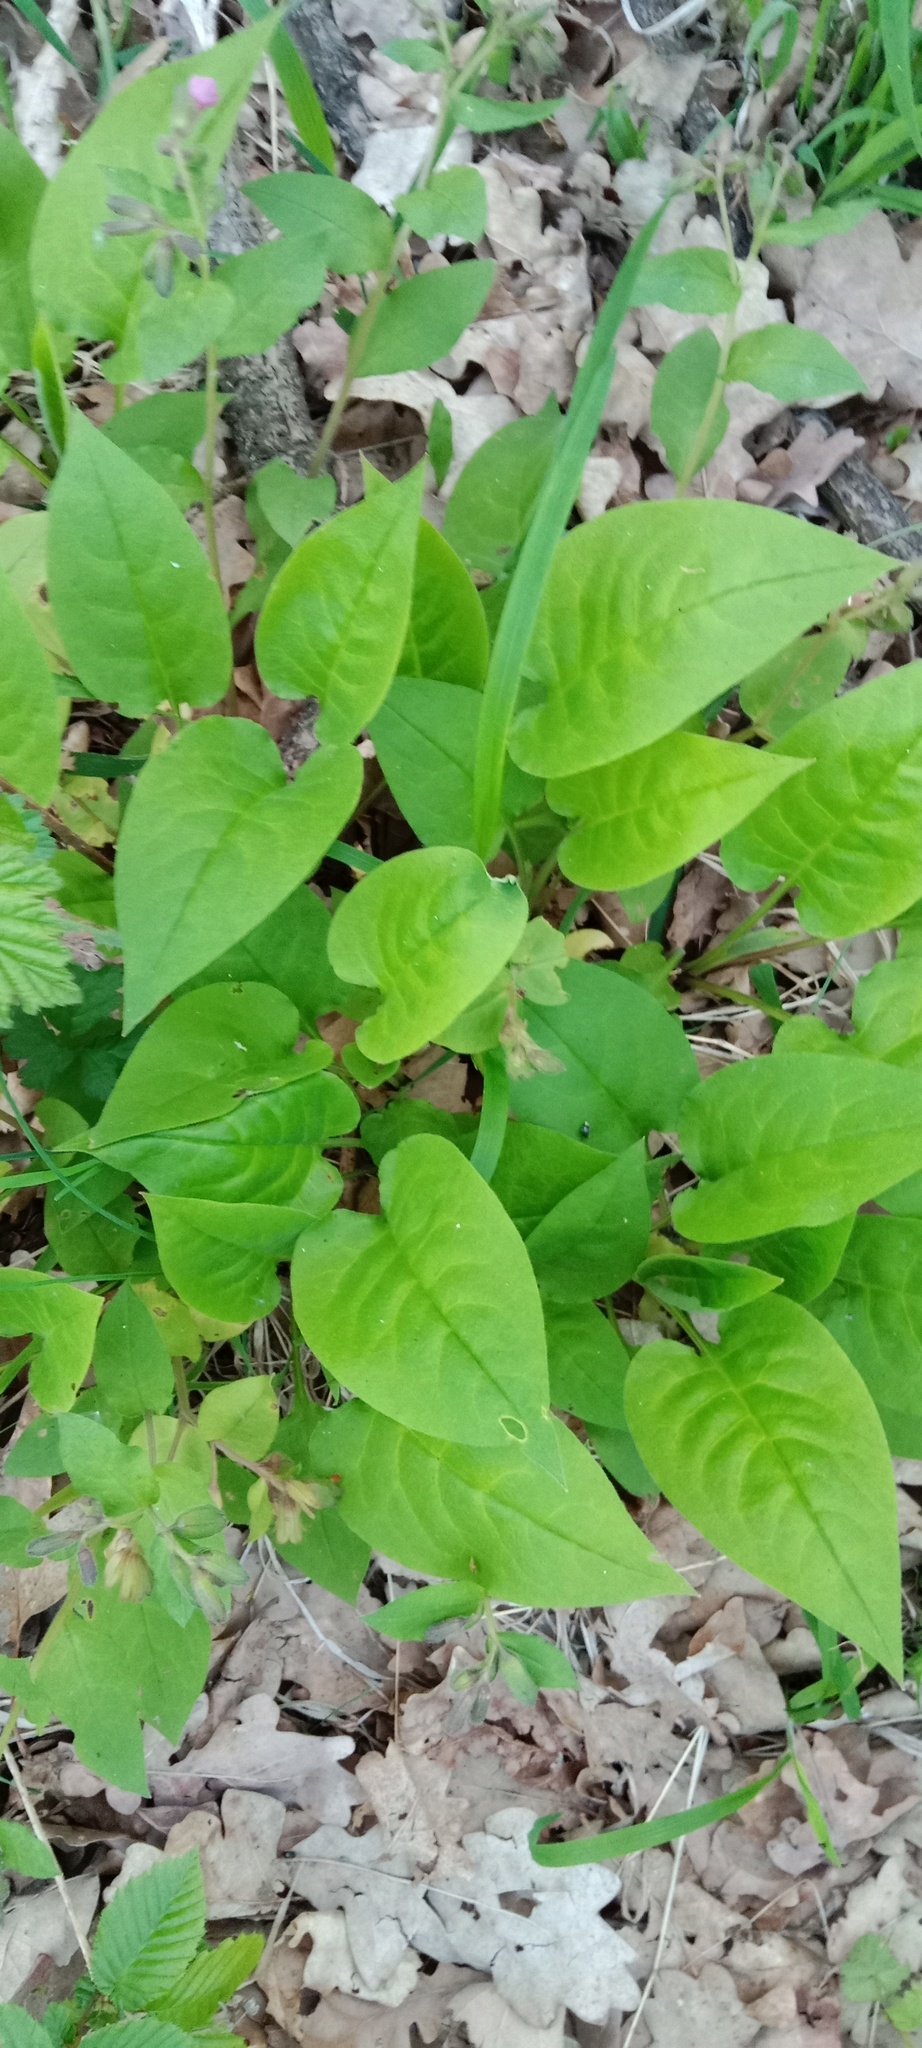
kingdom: Plantae
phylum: Tracheophyta
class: Magnoliopsida
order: Boraginales
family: Boraginaceae
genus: Pulmonaria
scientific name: Pulmonaria obscura
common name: Suffolk lungwort
